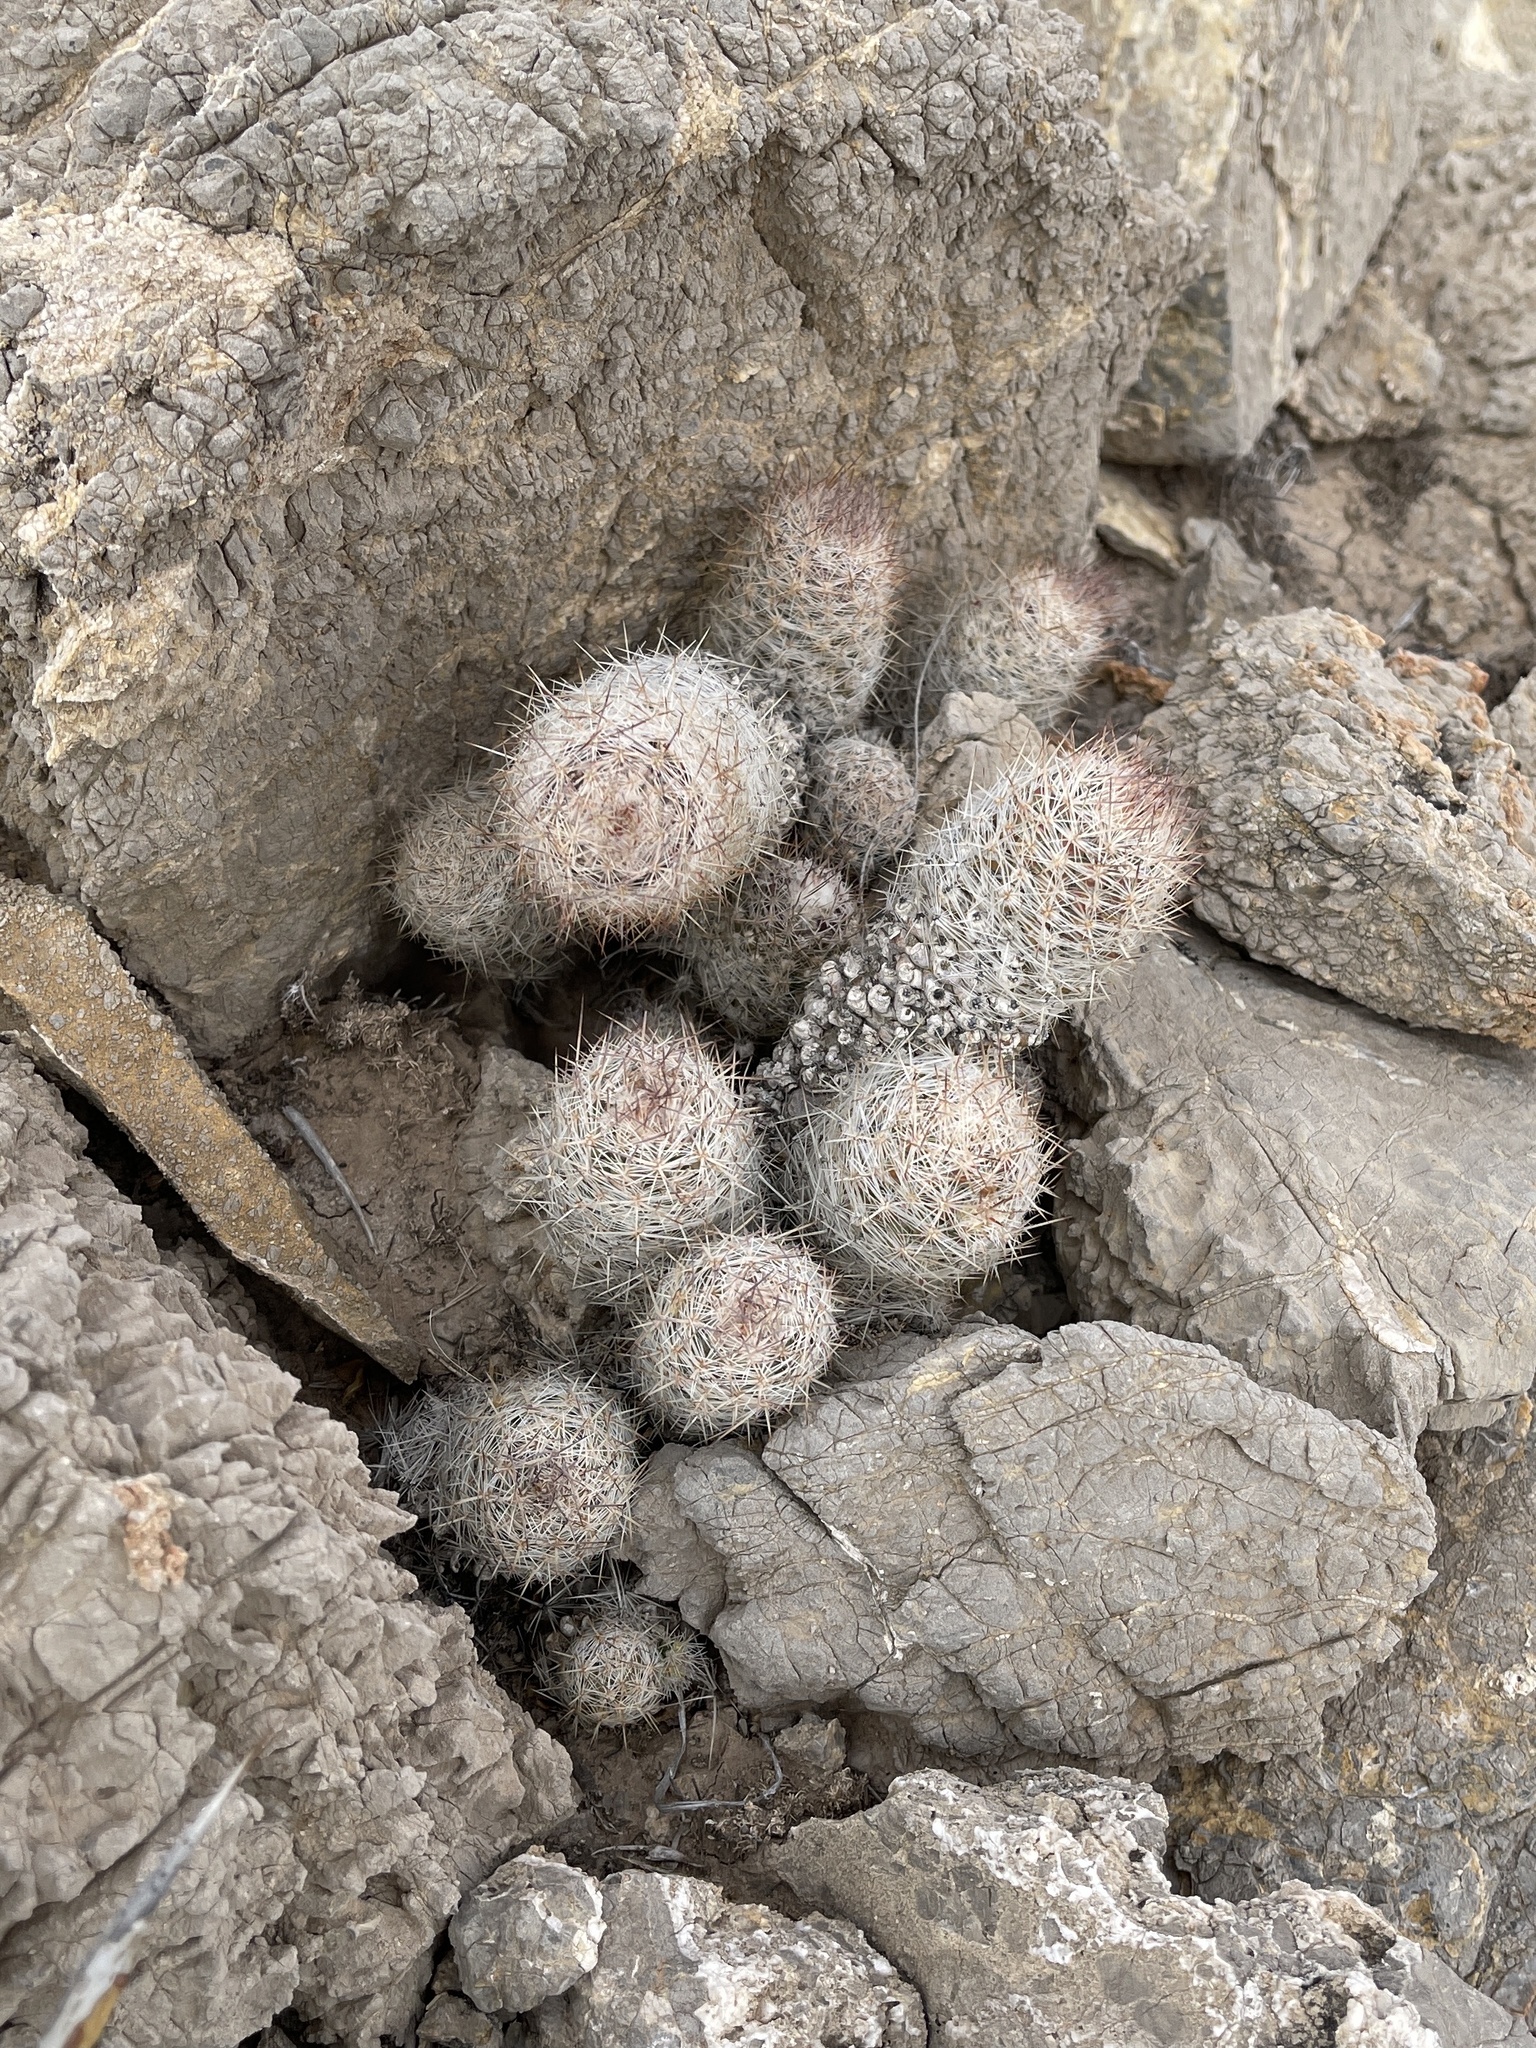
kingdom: Plantae
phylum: Tracheophyta
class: Magnoliopsida
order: Caryophyllales
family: Cactaceae
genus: Pelecyphora
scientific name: Pelecyphora tuberculosa
